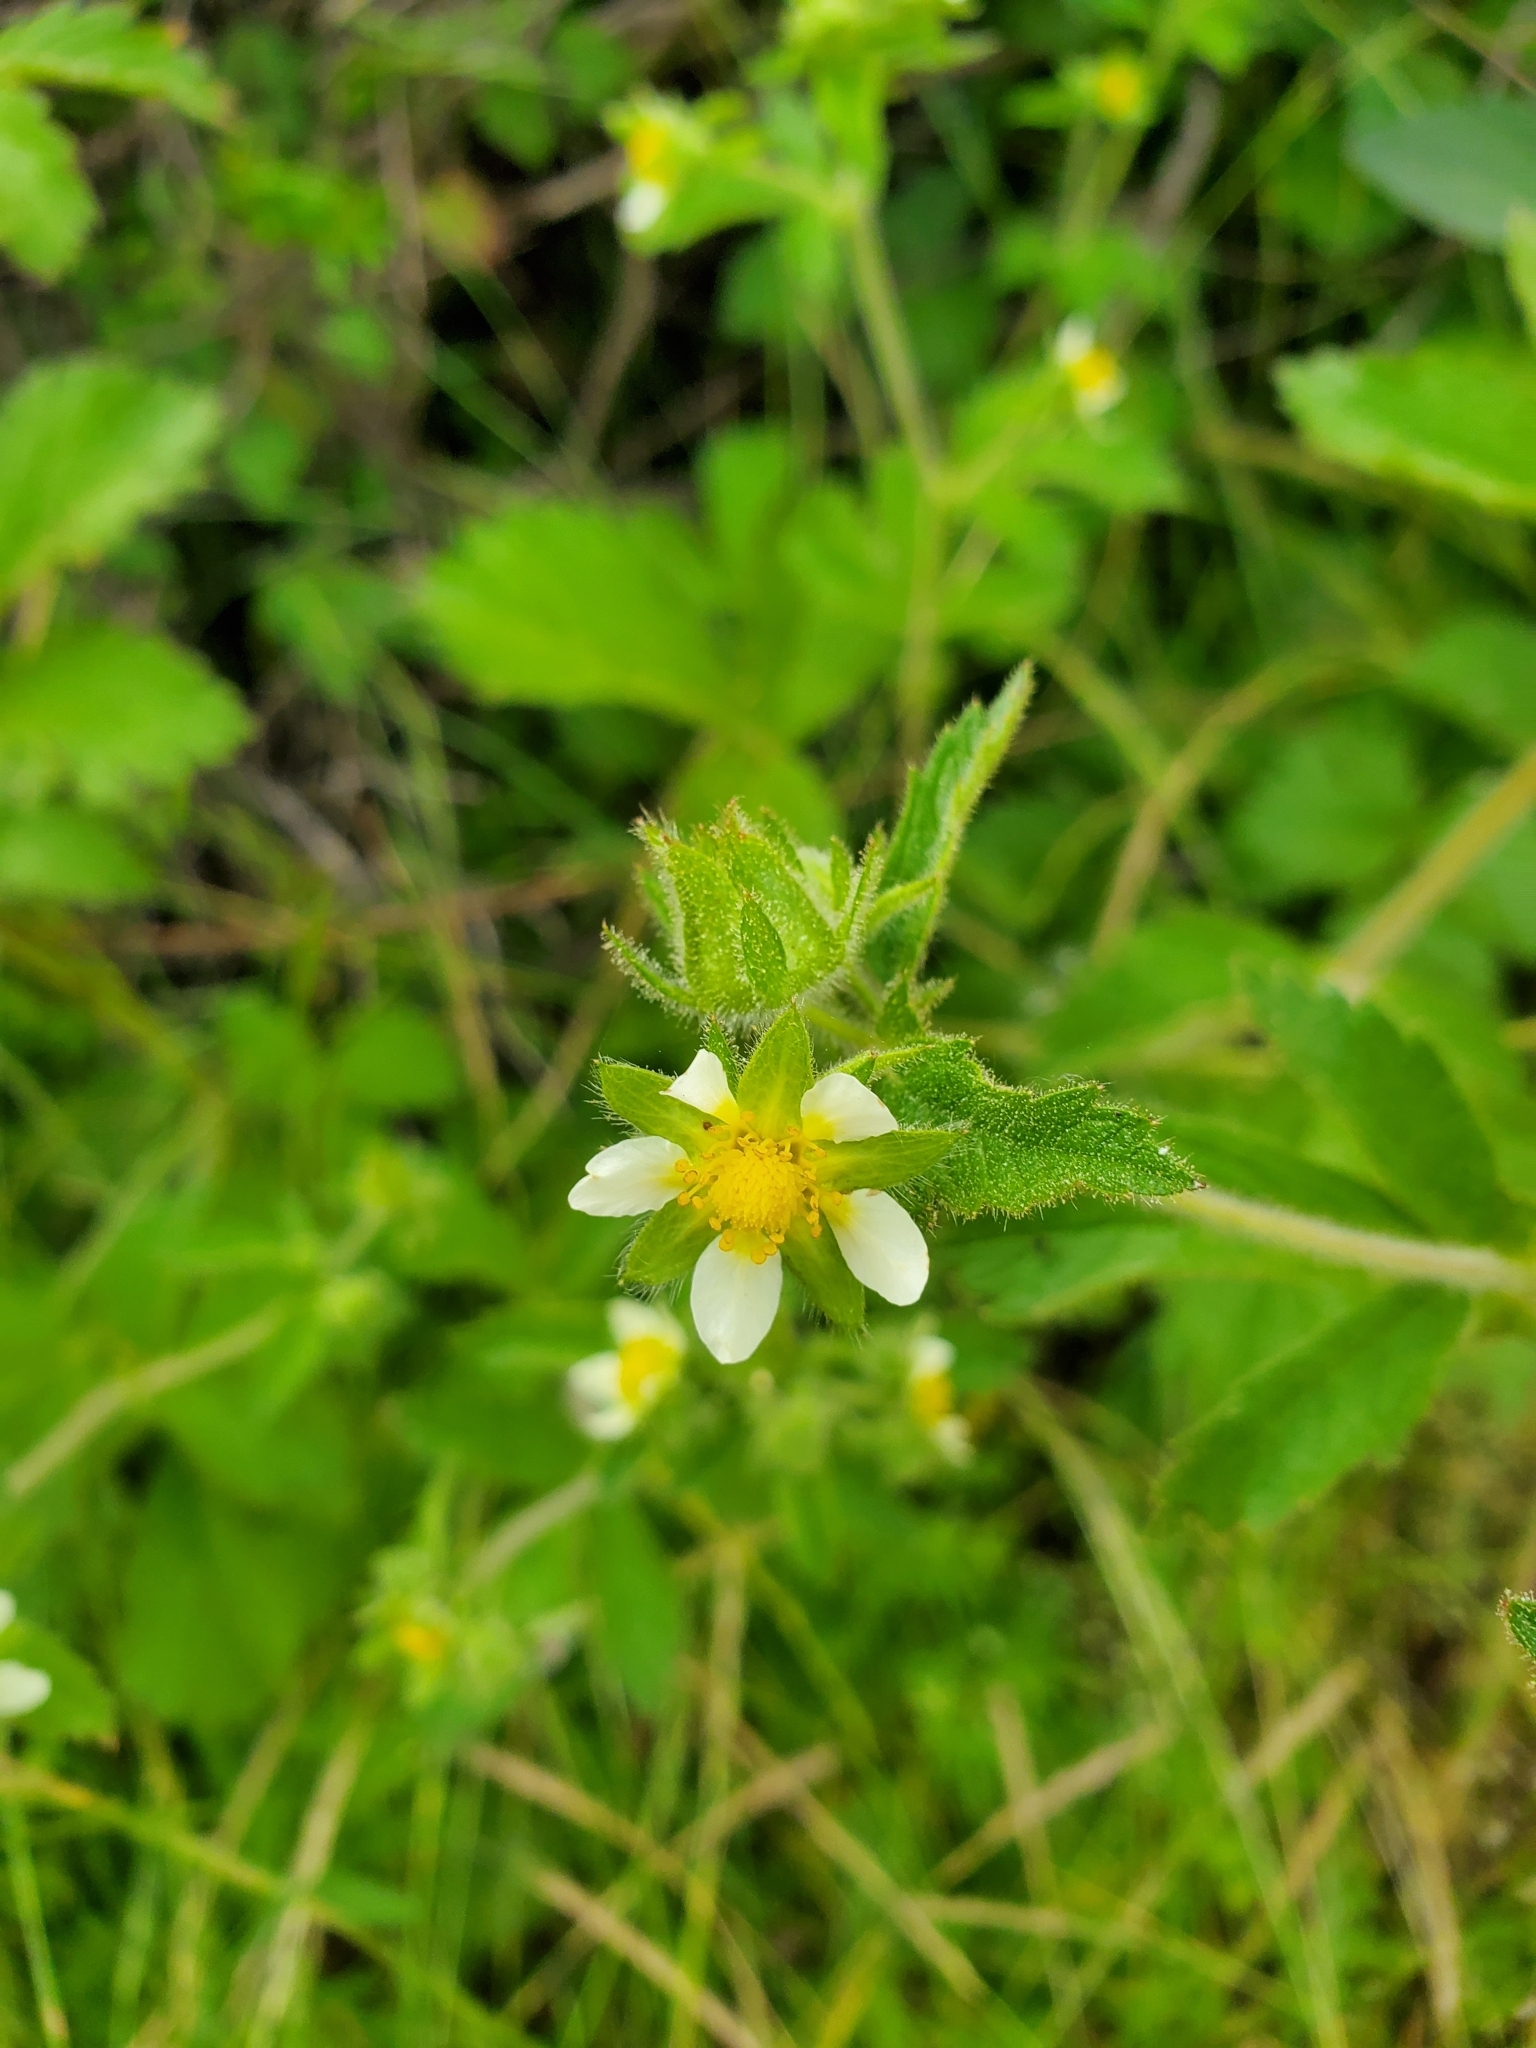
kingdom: Plantae
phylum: Tracheophyta
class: Magnoliopsida
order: Rosales
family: Rosaceae
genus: Drymocallis
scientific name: Drymocallis glandulosa
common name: Sticky cinquefoil
